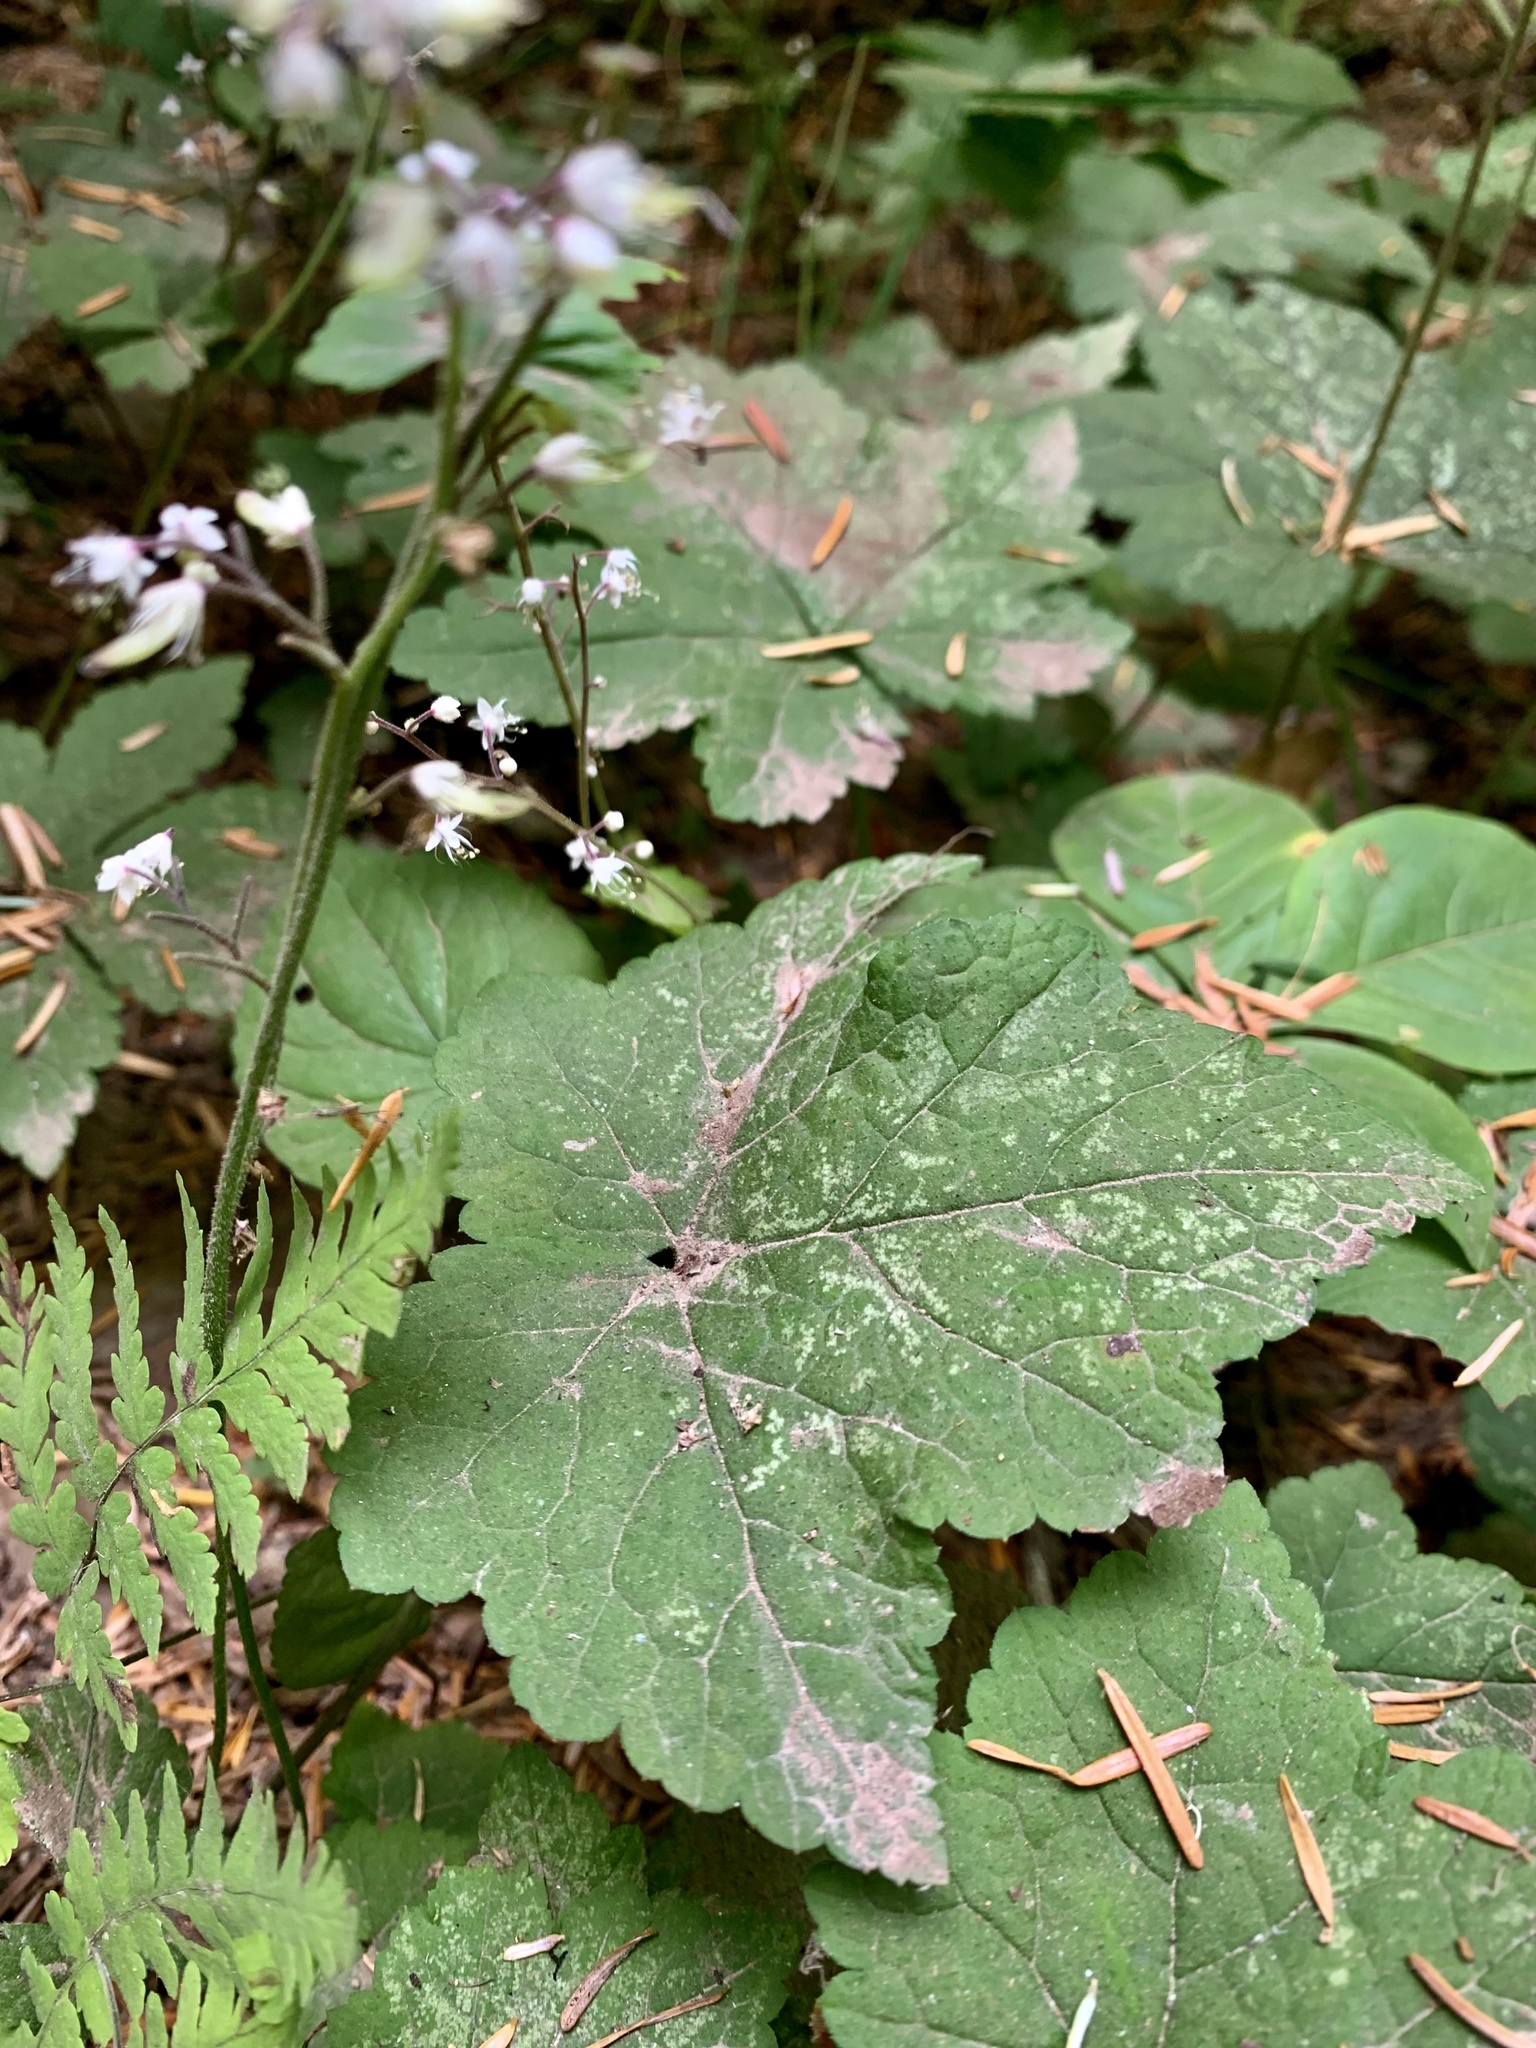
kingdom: Plantae
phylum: Tracheophyta
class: Magnoliopsida
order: Saxifragales
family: Saxifragaceae
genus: Tiarella
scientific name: Tiarella trifoliata
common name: Sugar-scoop
